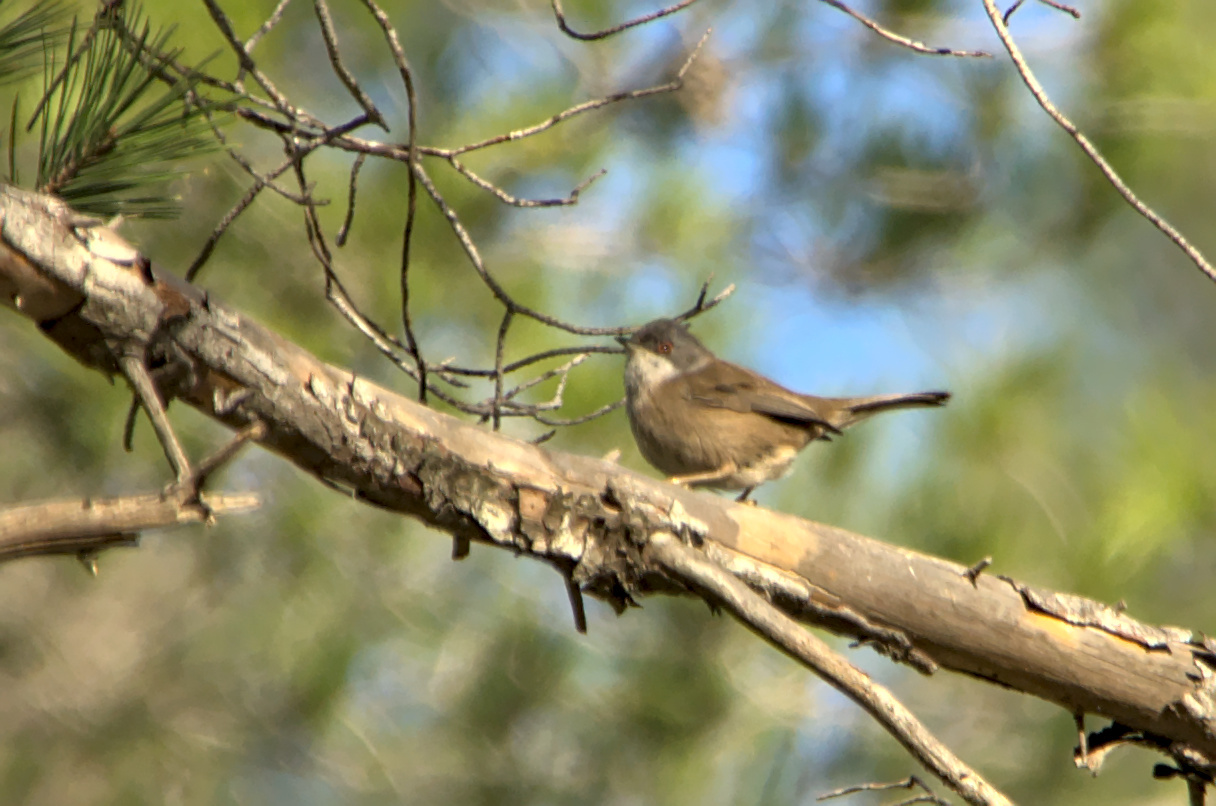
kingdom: Animalia
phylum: Chordata
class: Aves
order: Passeriformes
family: Sylviidae
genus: Curruca
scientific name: Curruca melanocephala
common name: Sardinian warbler
